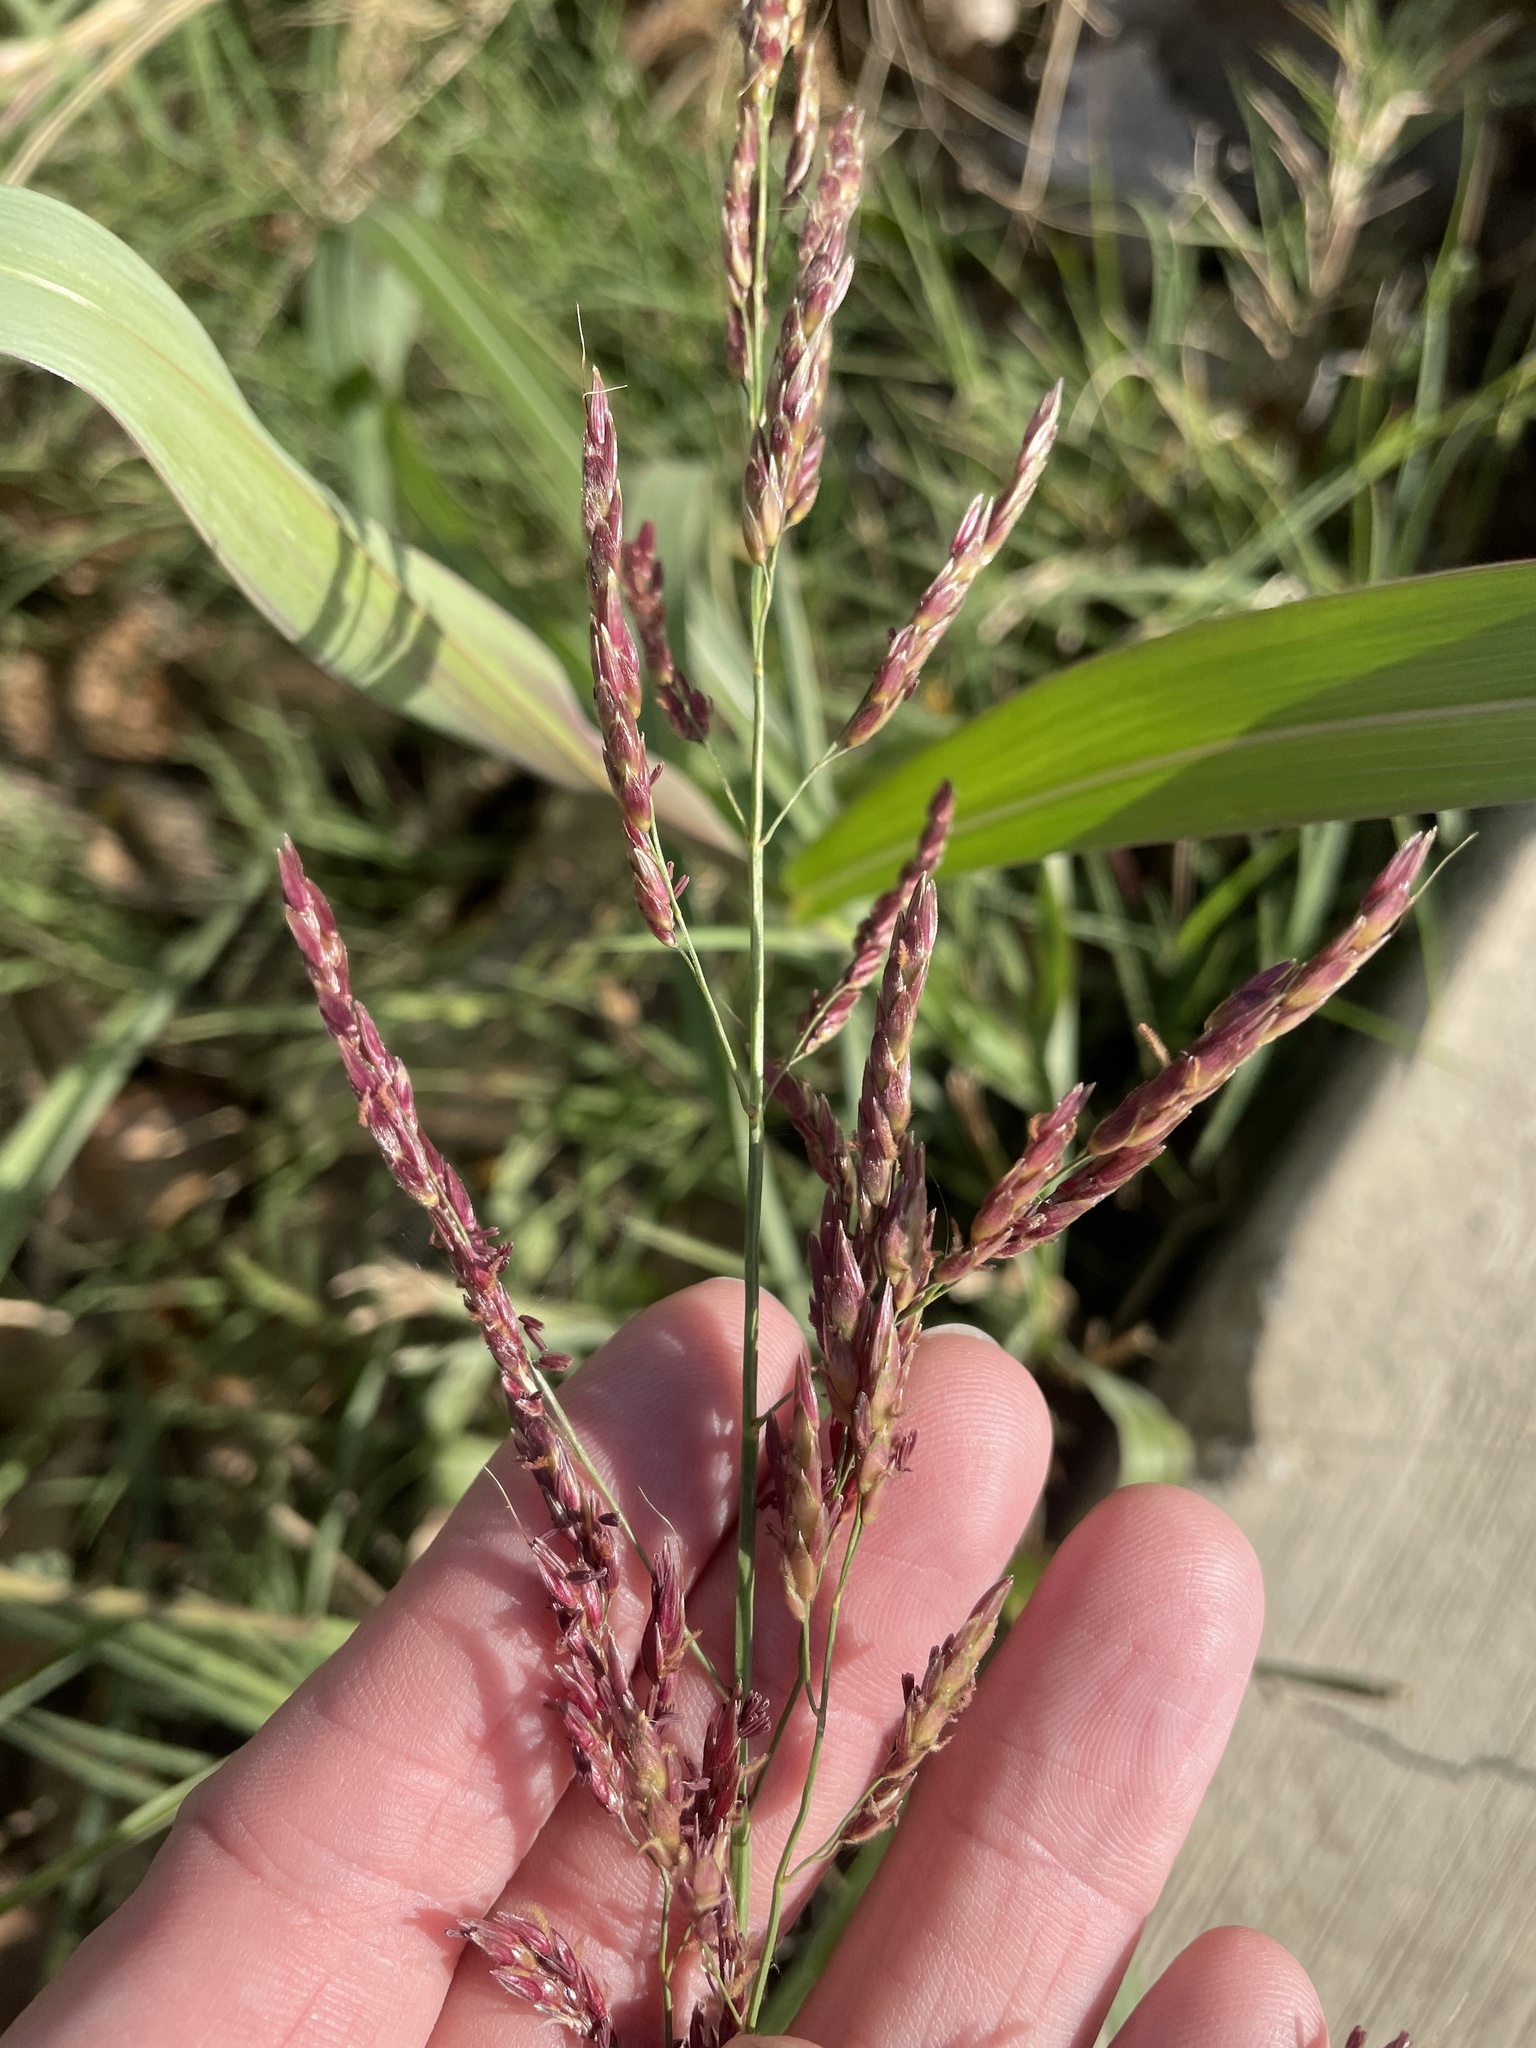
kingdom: Plantae
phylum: Tracheophyta
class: Liliopsida
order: Poales
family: Poaceae
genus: Sorghum
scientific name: Sorghum halepense
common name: Johnson-grass
